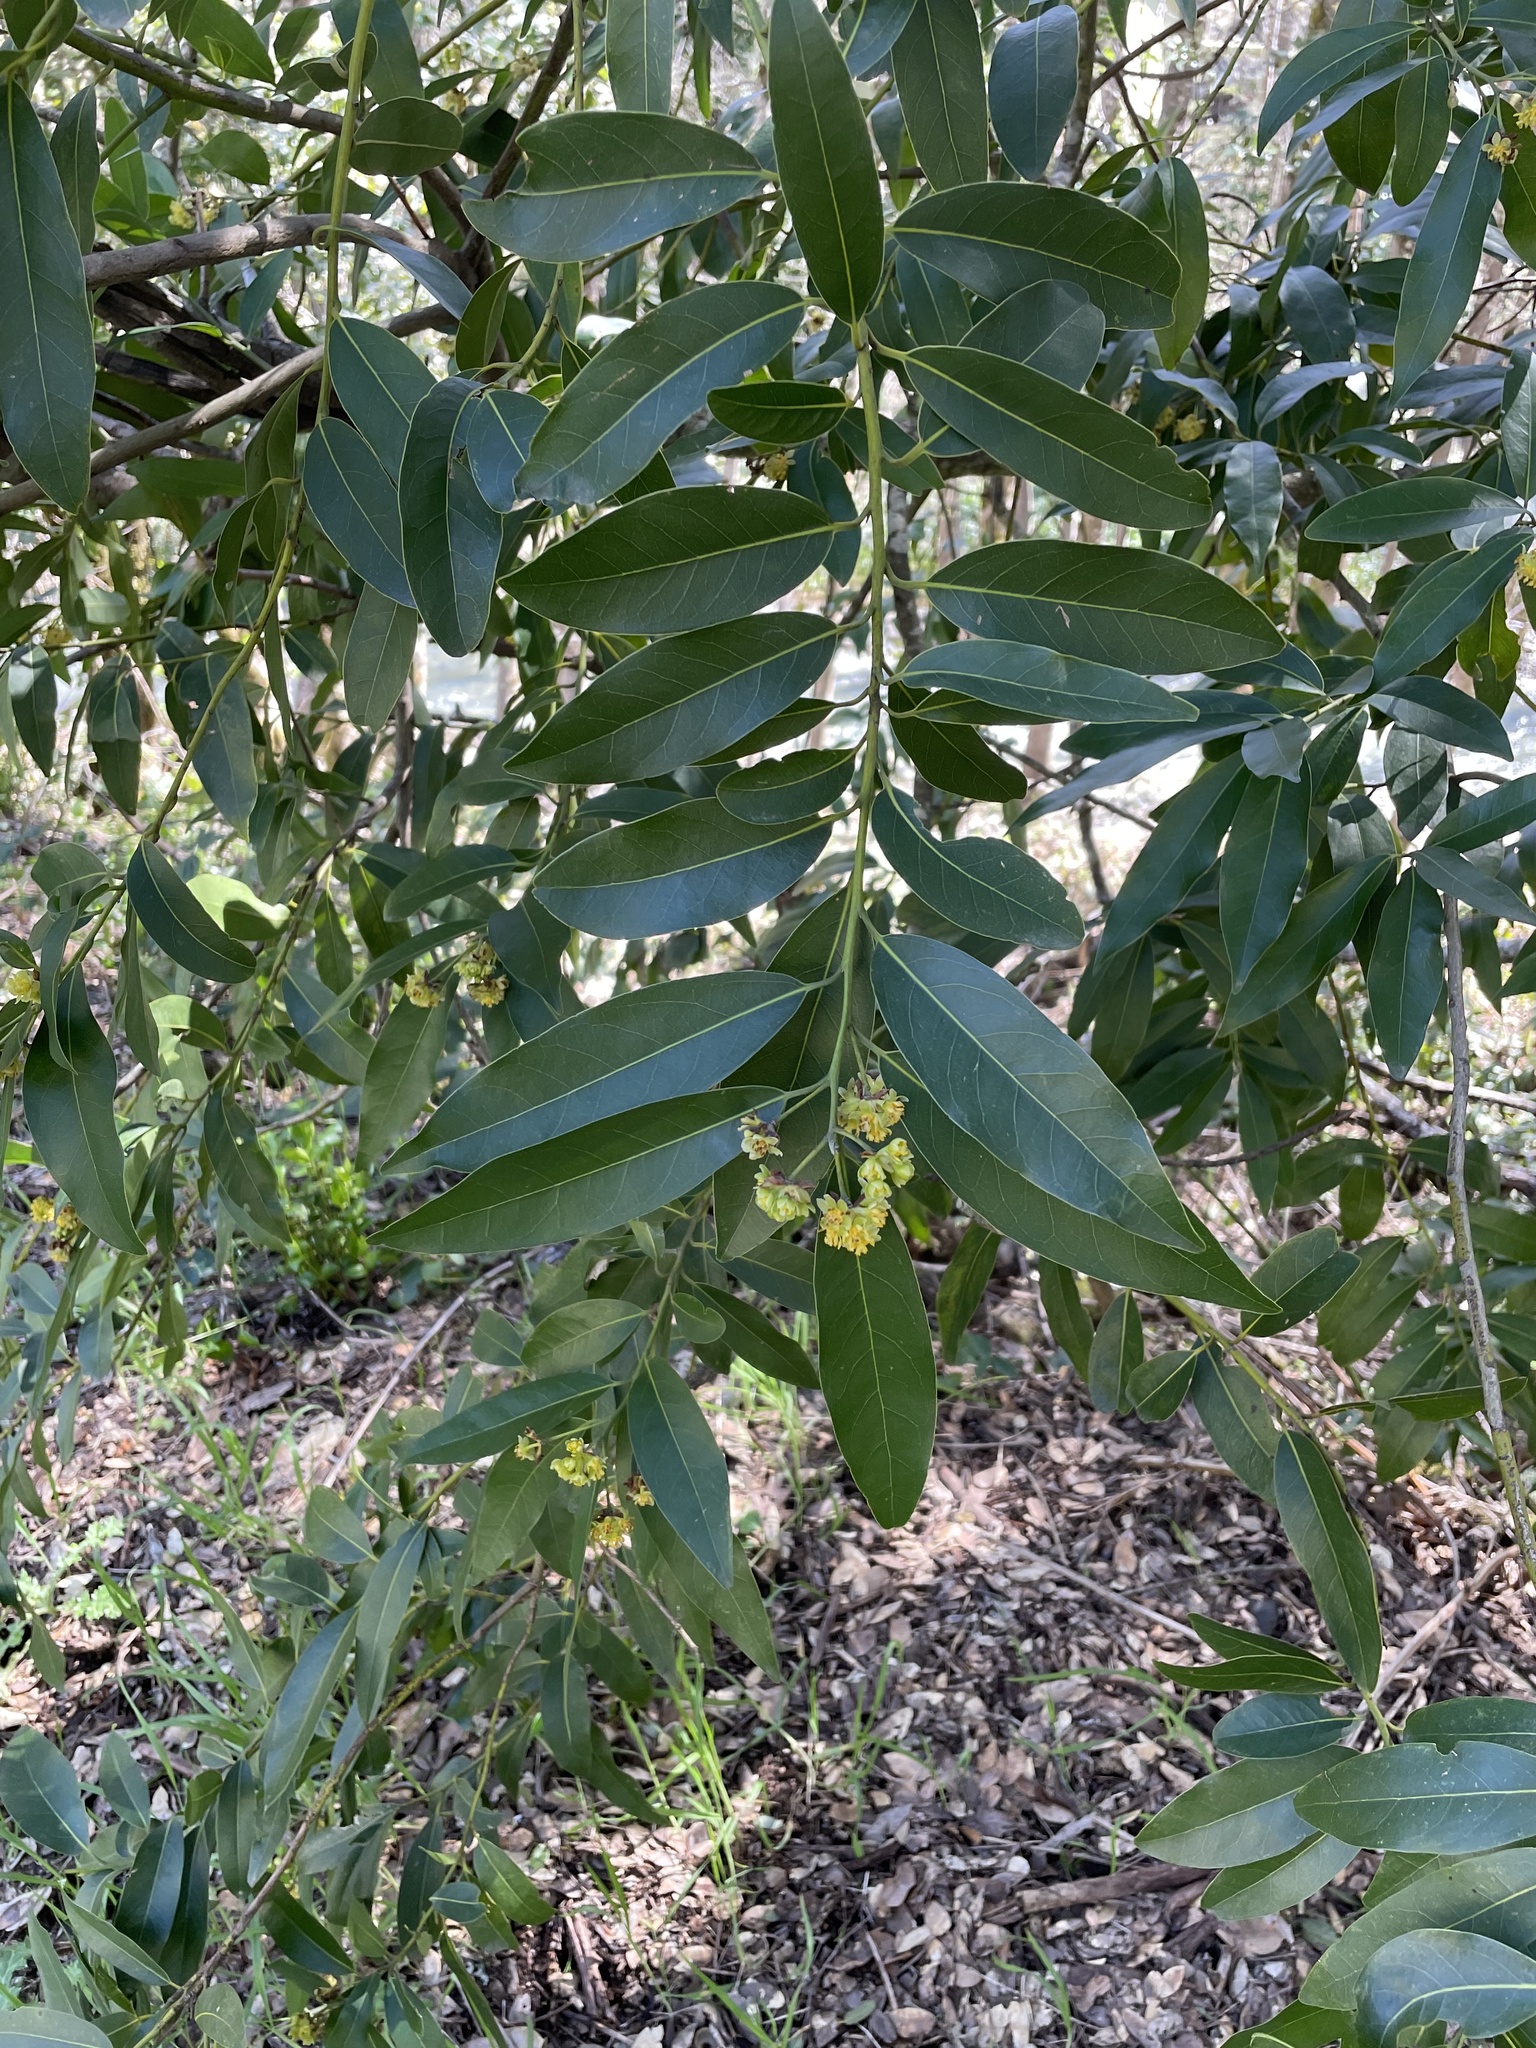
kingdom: Plantae
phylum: Tracheophyta
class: Magnoliopsida
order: Laurales
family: Lauraceae
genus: Umbellularia
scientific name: Umbellularia californica
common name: California bay
